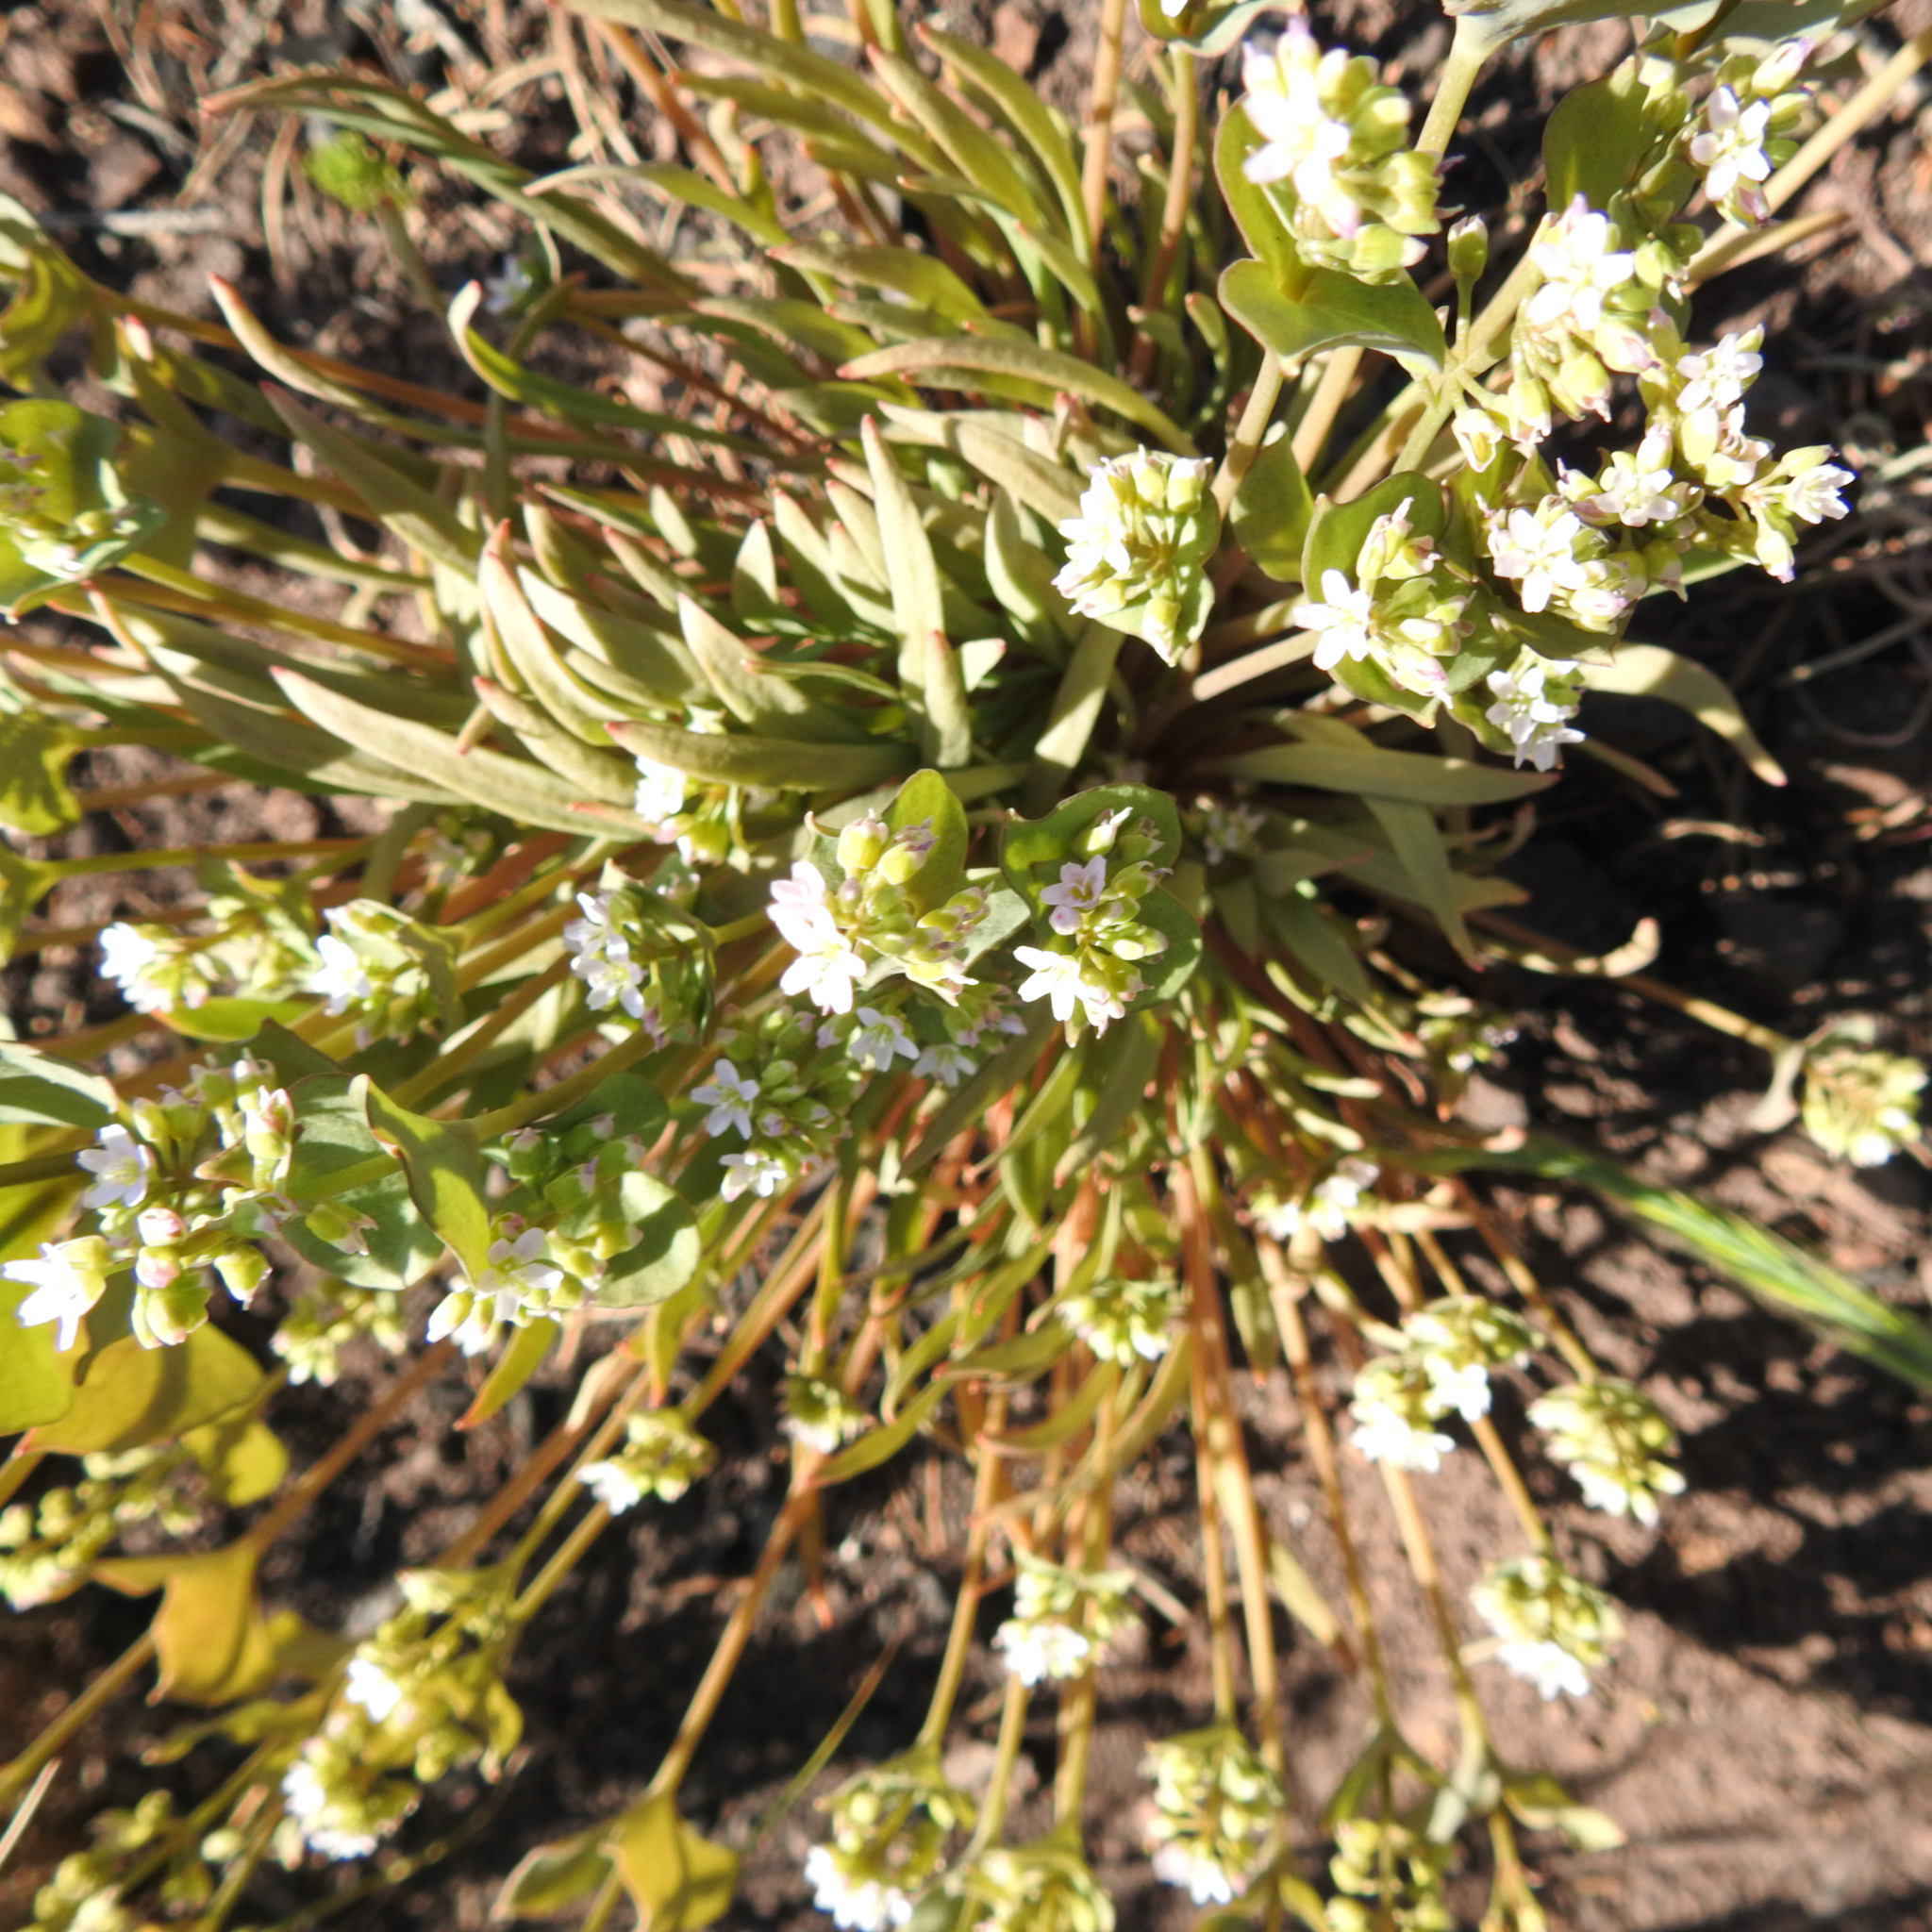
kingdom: Plantae
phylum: Tracheophyta
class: Magnoliopsida
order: Caryophyllales
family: Montiaceae
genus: Claytonia
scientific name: Claytonia parviflora
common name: Indian-lettuce
